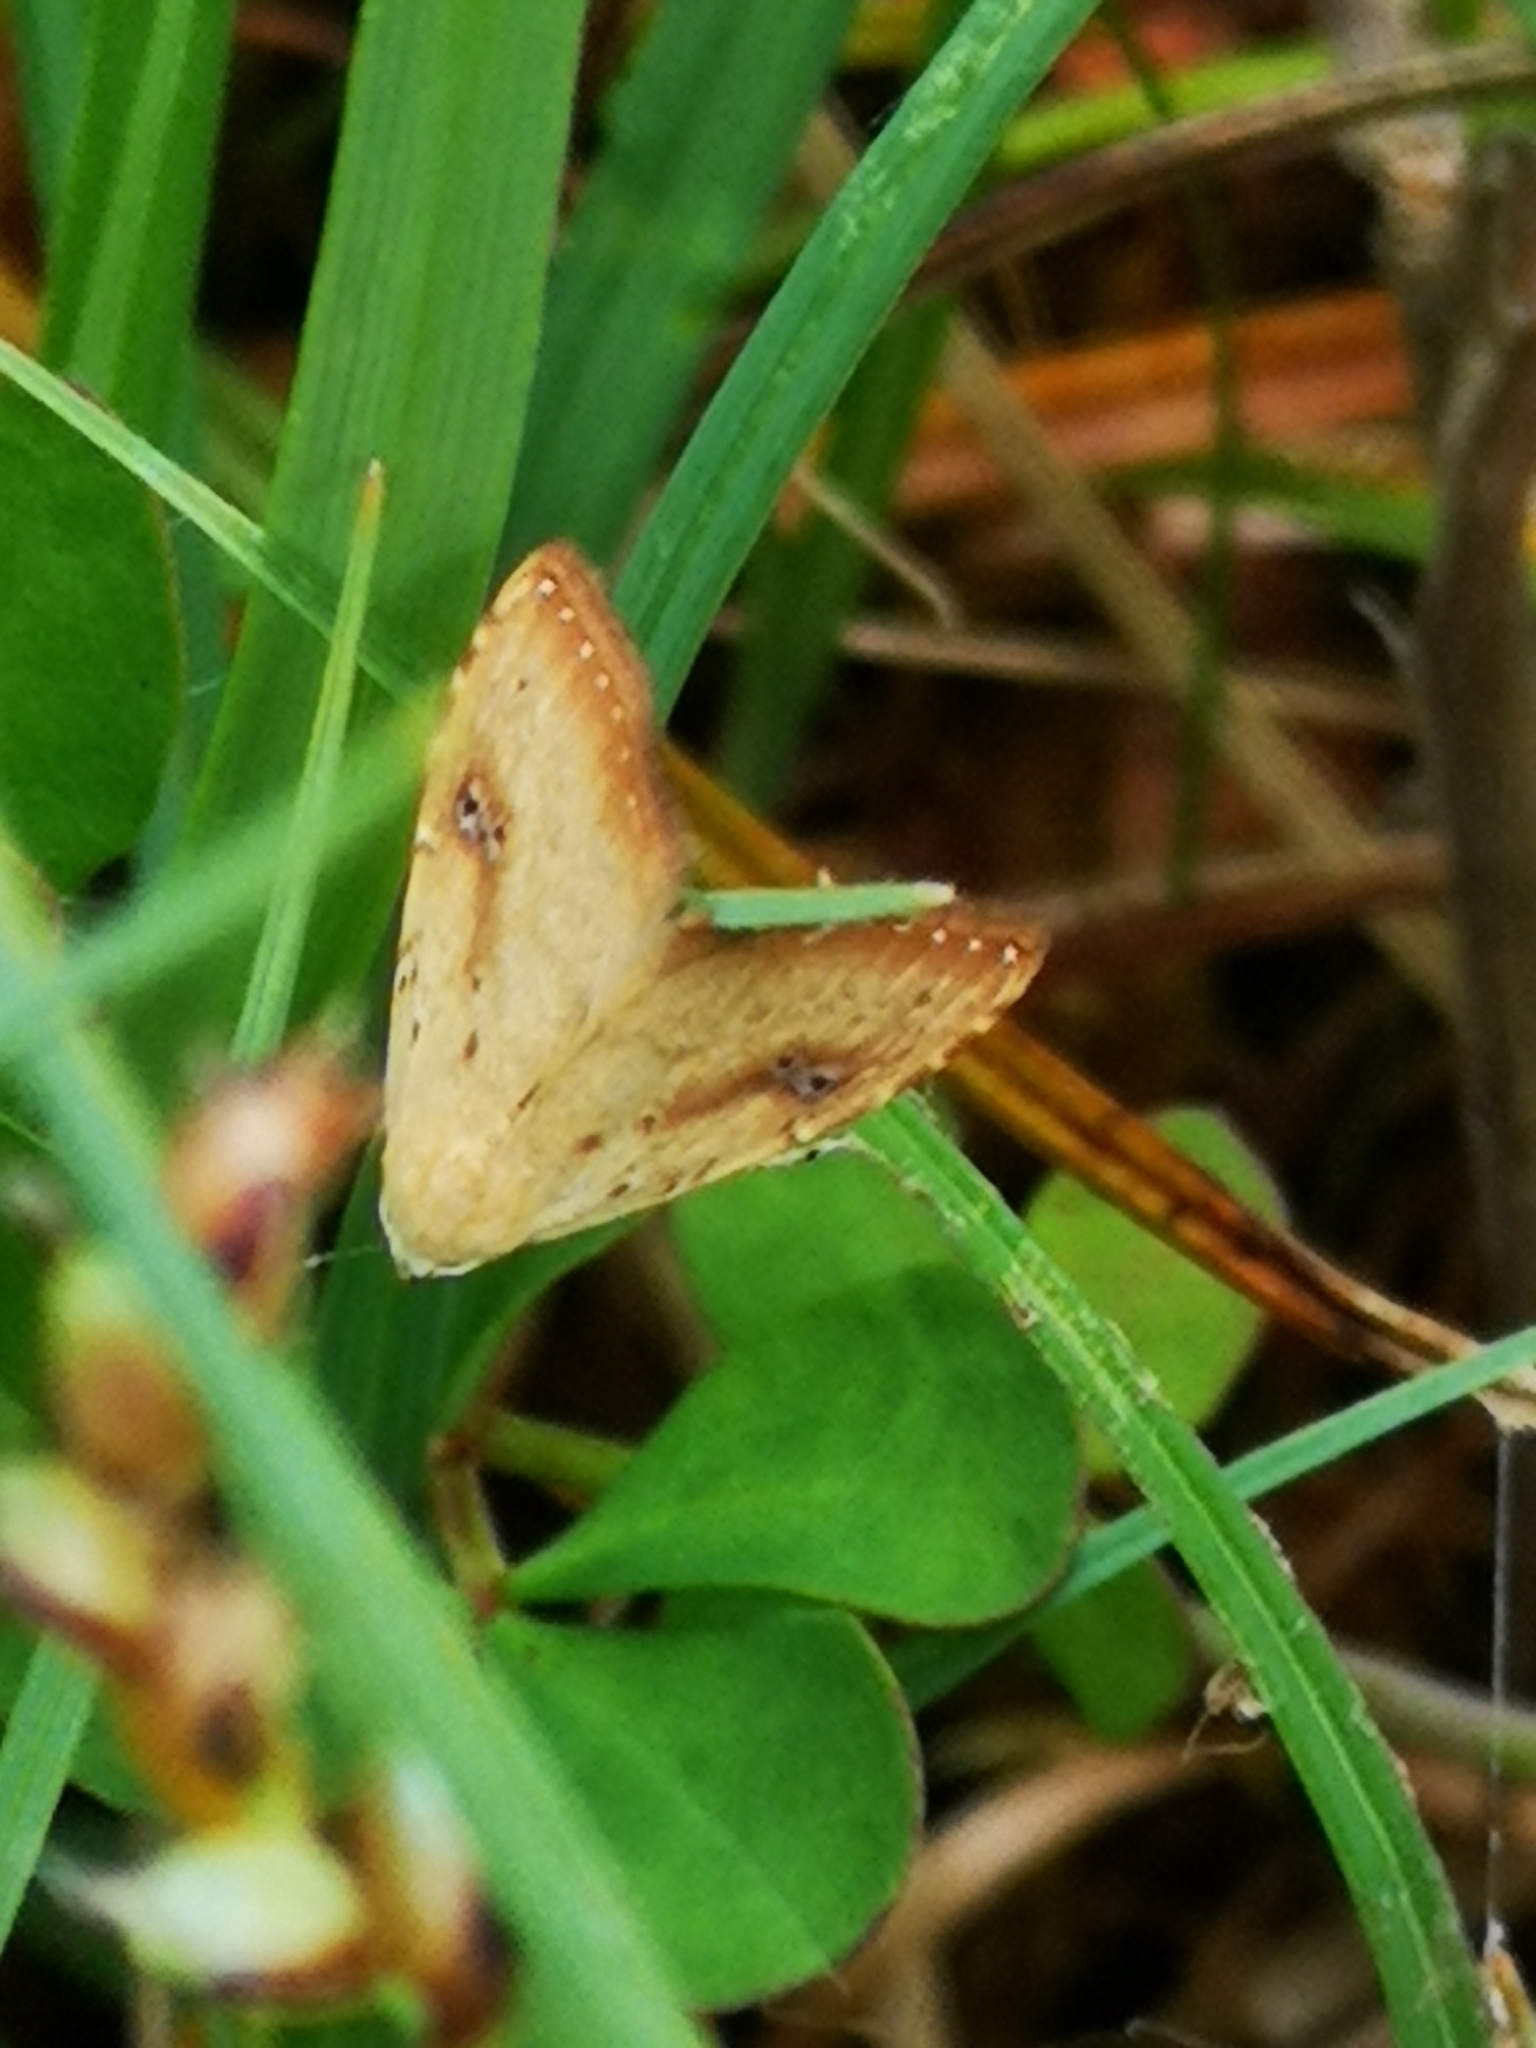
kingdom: Animalia
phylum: Arthropoda
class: Insecta
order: Lepidoptera
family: Erebidae
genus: Rivula
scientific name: Rivula sericealis
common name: Straw dot
